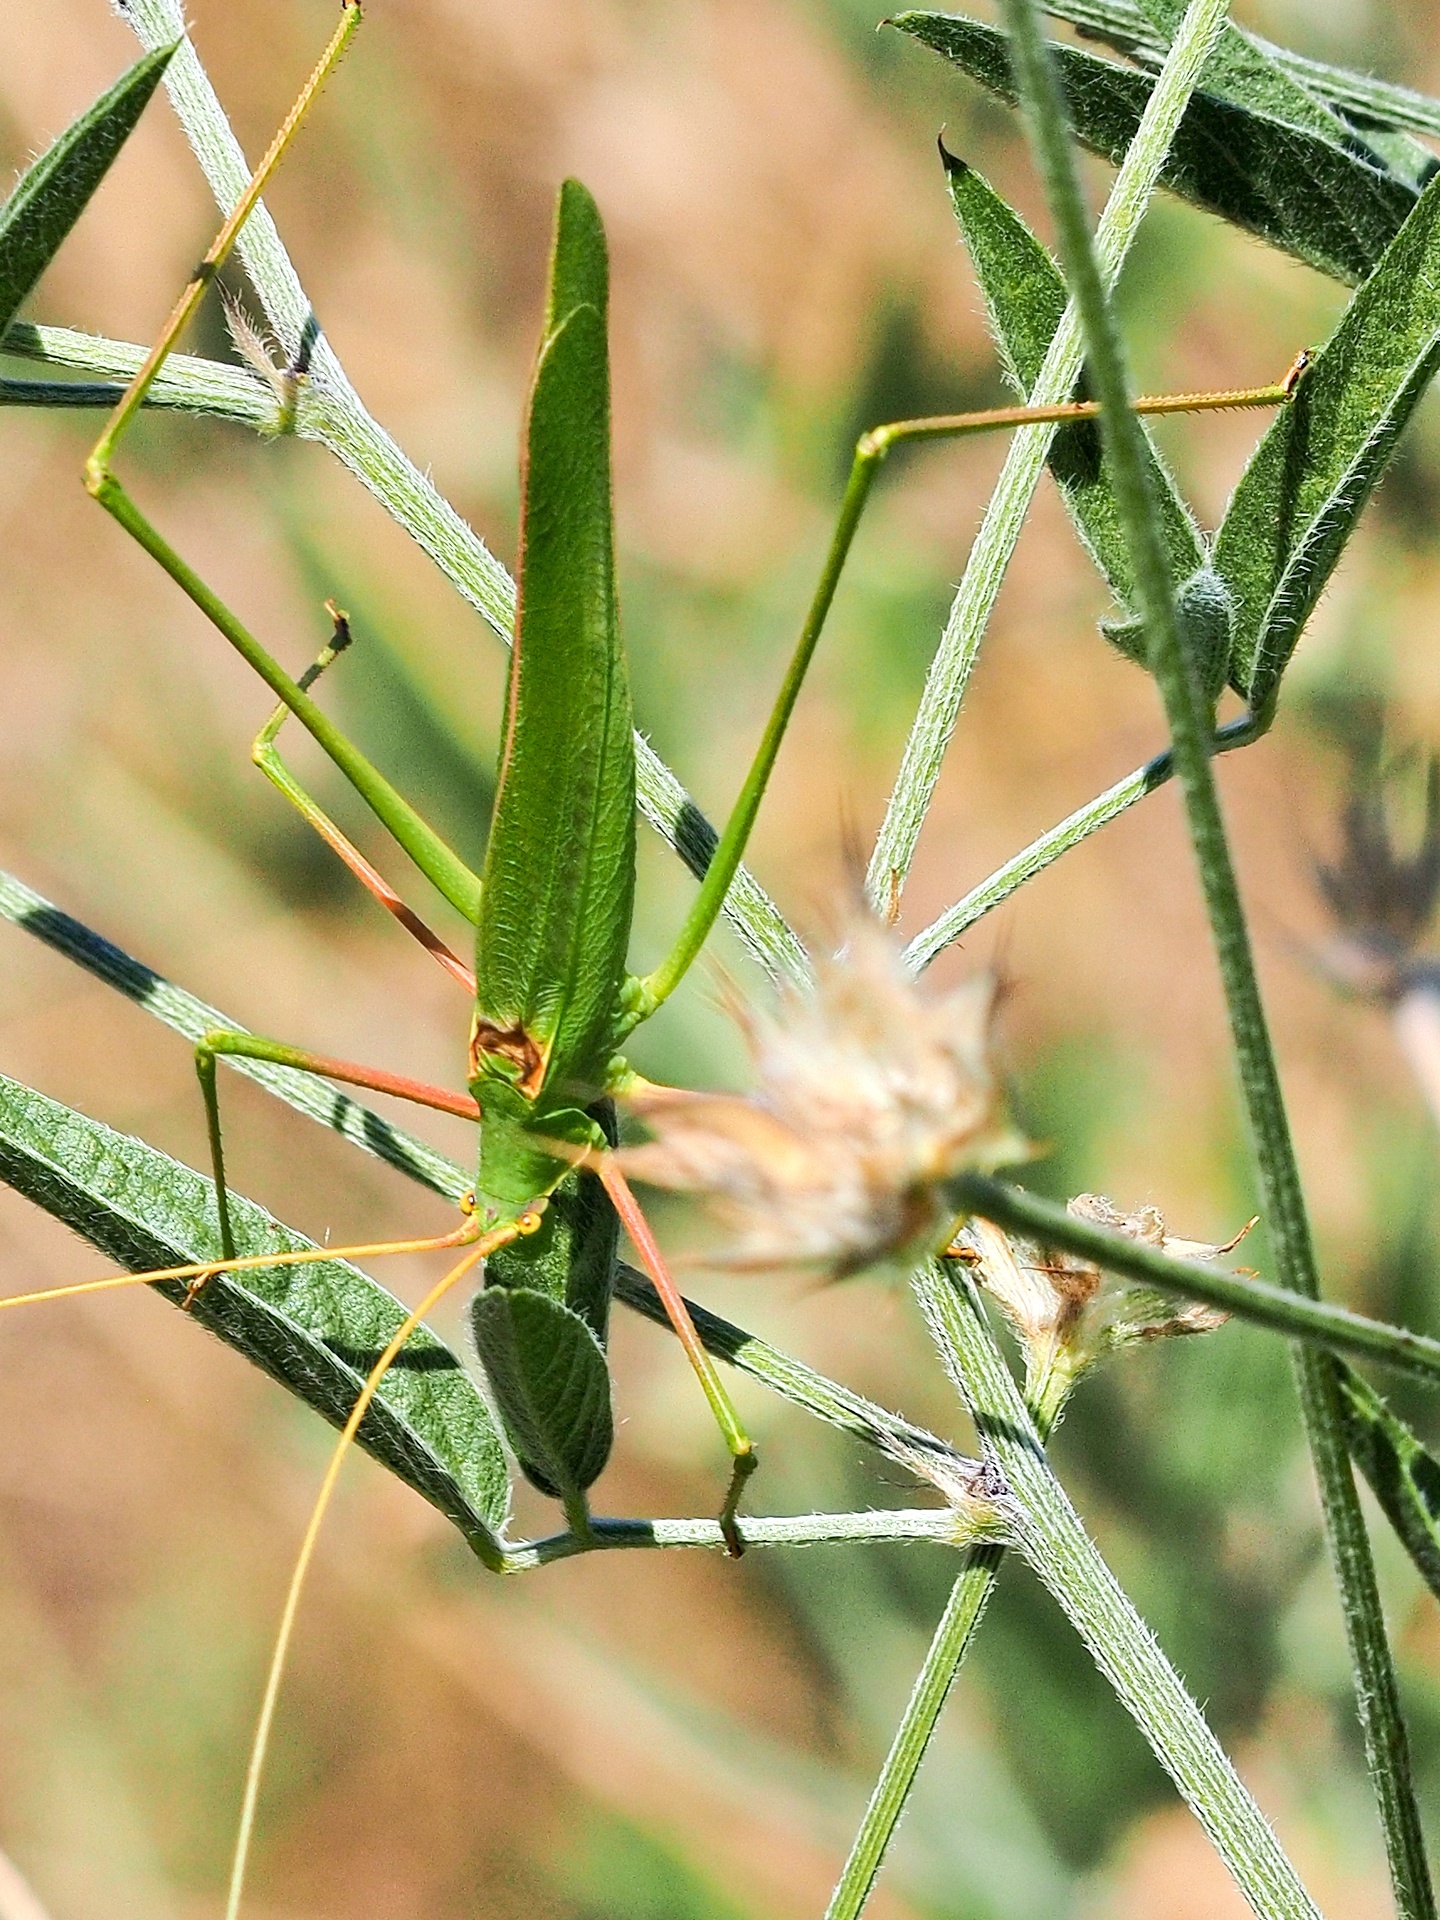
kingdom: Animalia
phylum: Arthropoda
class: Insecta
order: Orthoptera
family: Tettigoniidae
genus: Acrometopa
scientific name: Acrometopa macropoda
